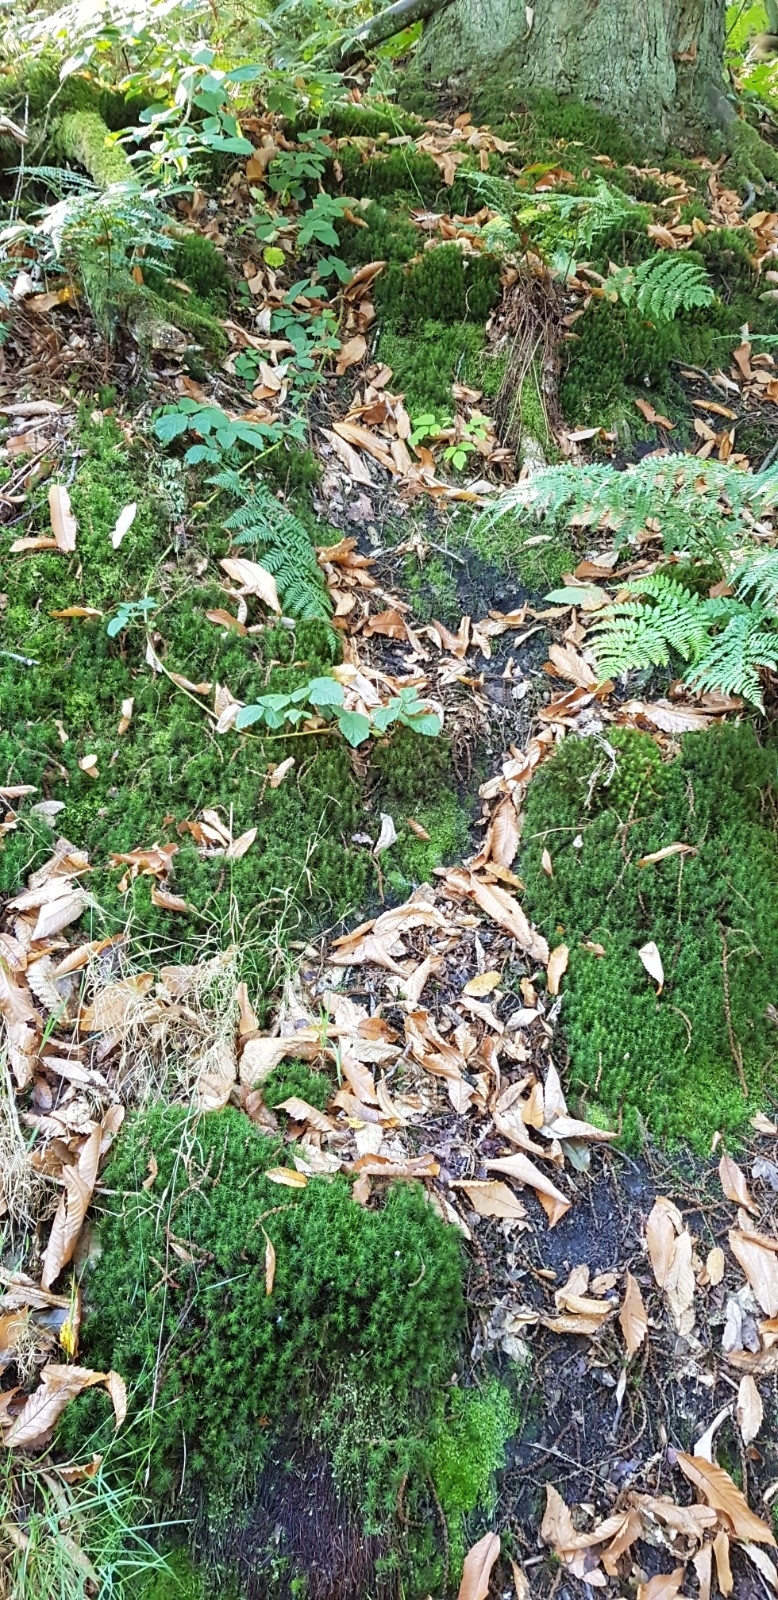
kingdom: Plantae
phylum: Bryophyta
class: Polytrichopsida
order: Polytrichales
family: Polytrichaceae
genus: Polytrichum
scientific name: Polytrichum formosum
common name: Bank haircap moss
